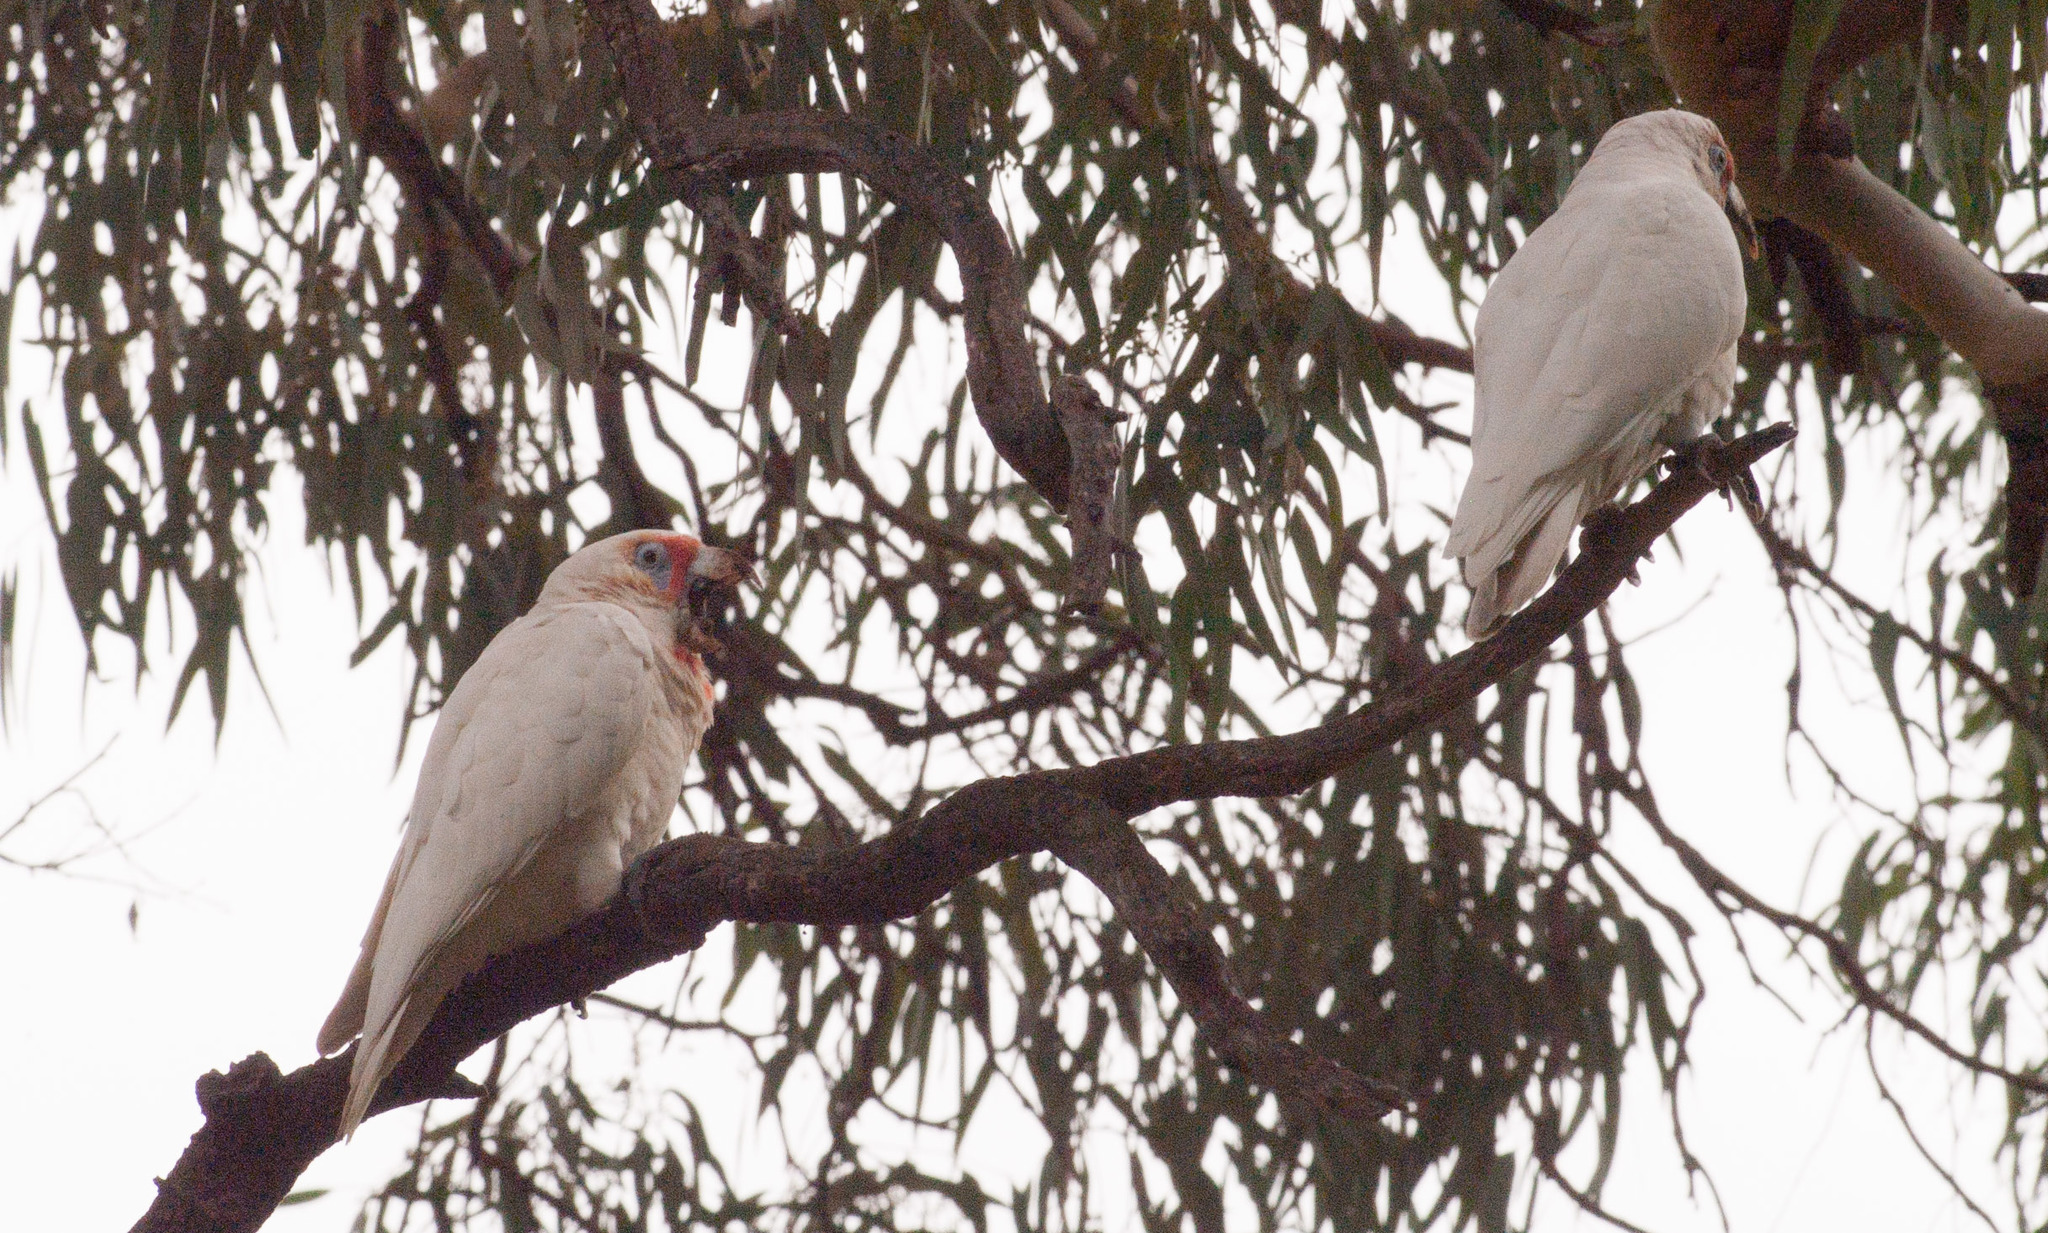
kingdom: Animalia
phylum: Chordata
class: Aves
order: Psittaciformes
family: Psittacidae
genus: Cacatua
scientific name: Cacatua tenuirostris
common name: Long-billed corella
